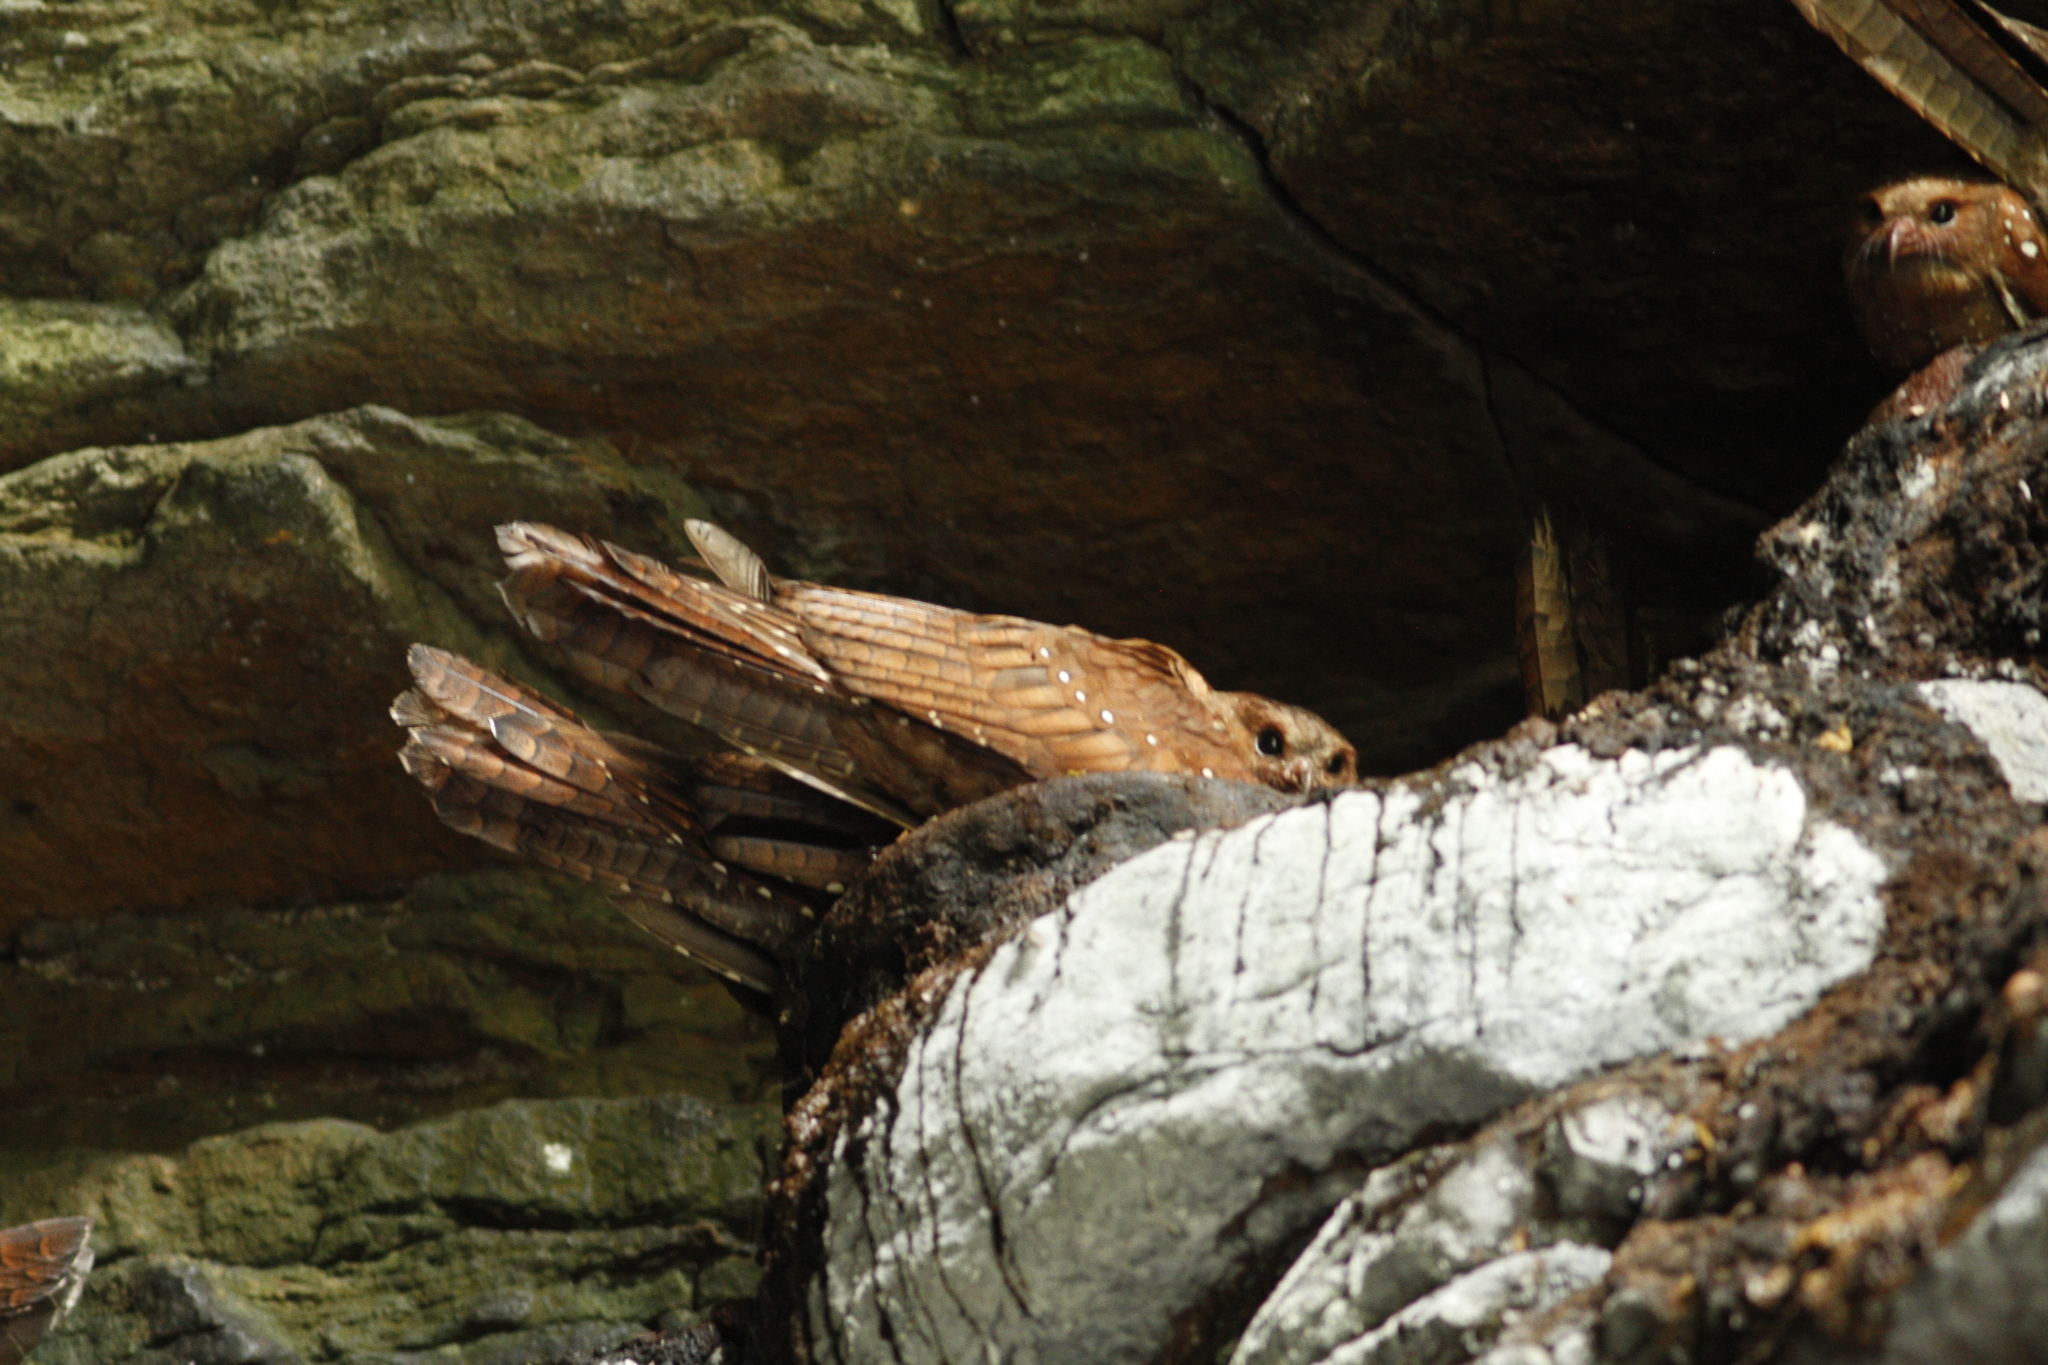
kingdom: Animalia
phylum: Chordata
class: Aves
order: Steatornithiformes
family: Steatornithidae
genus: Steatornis
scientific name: Steatornis caripensis
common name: Oilbird
